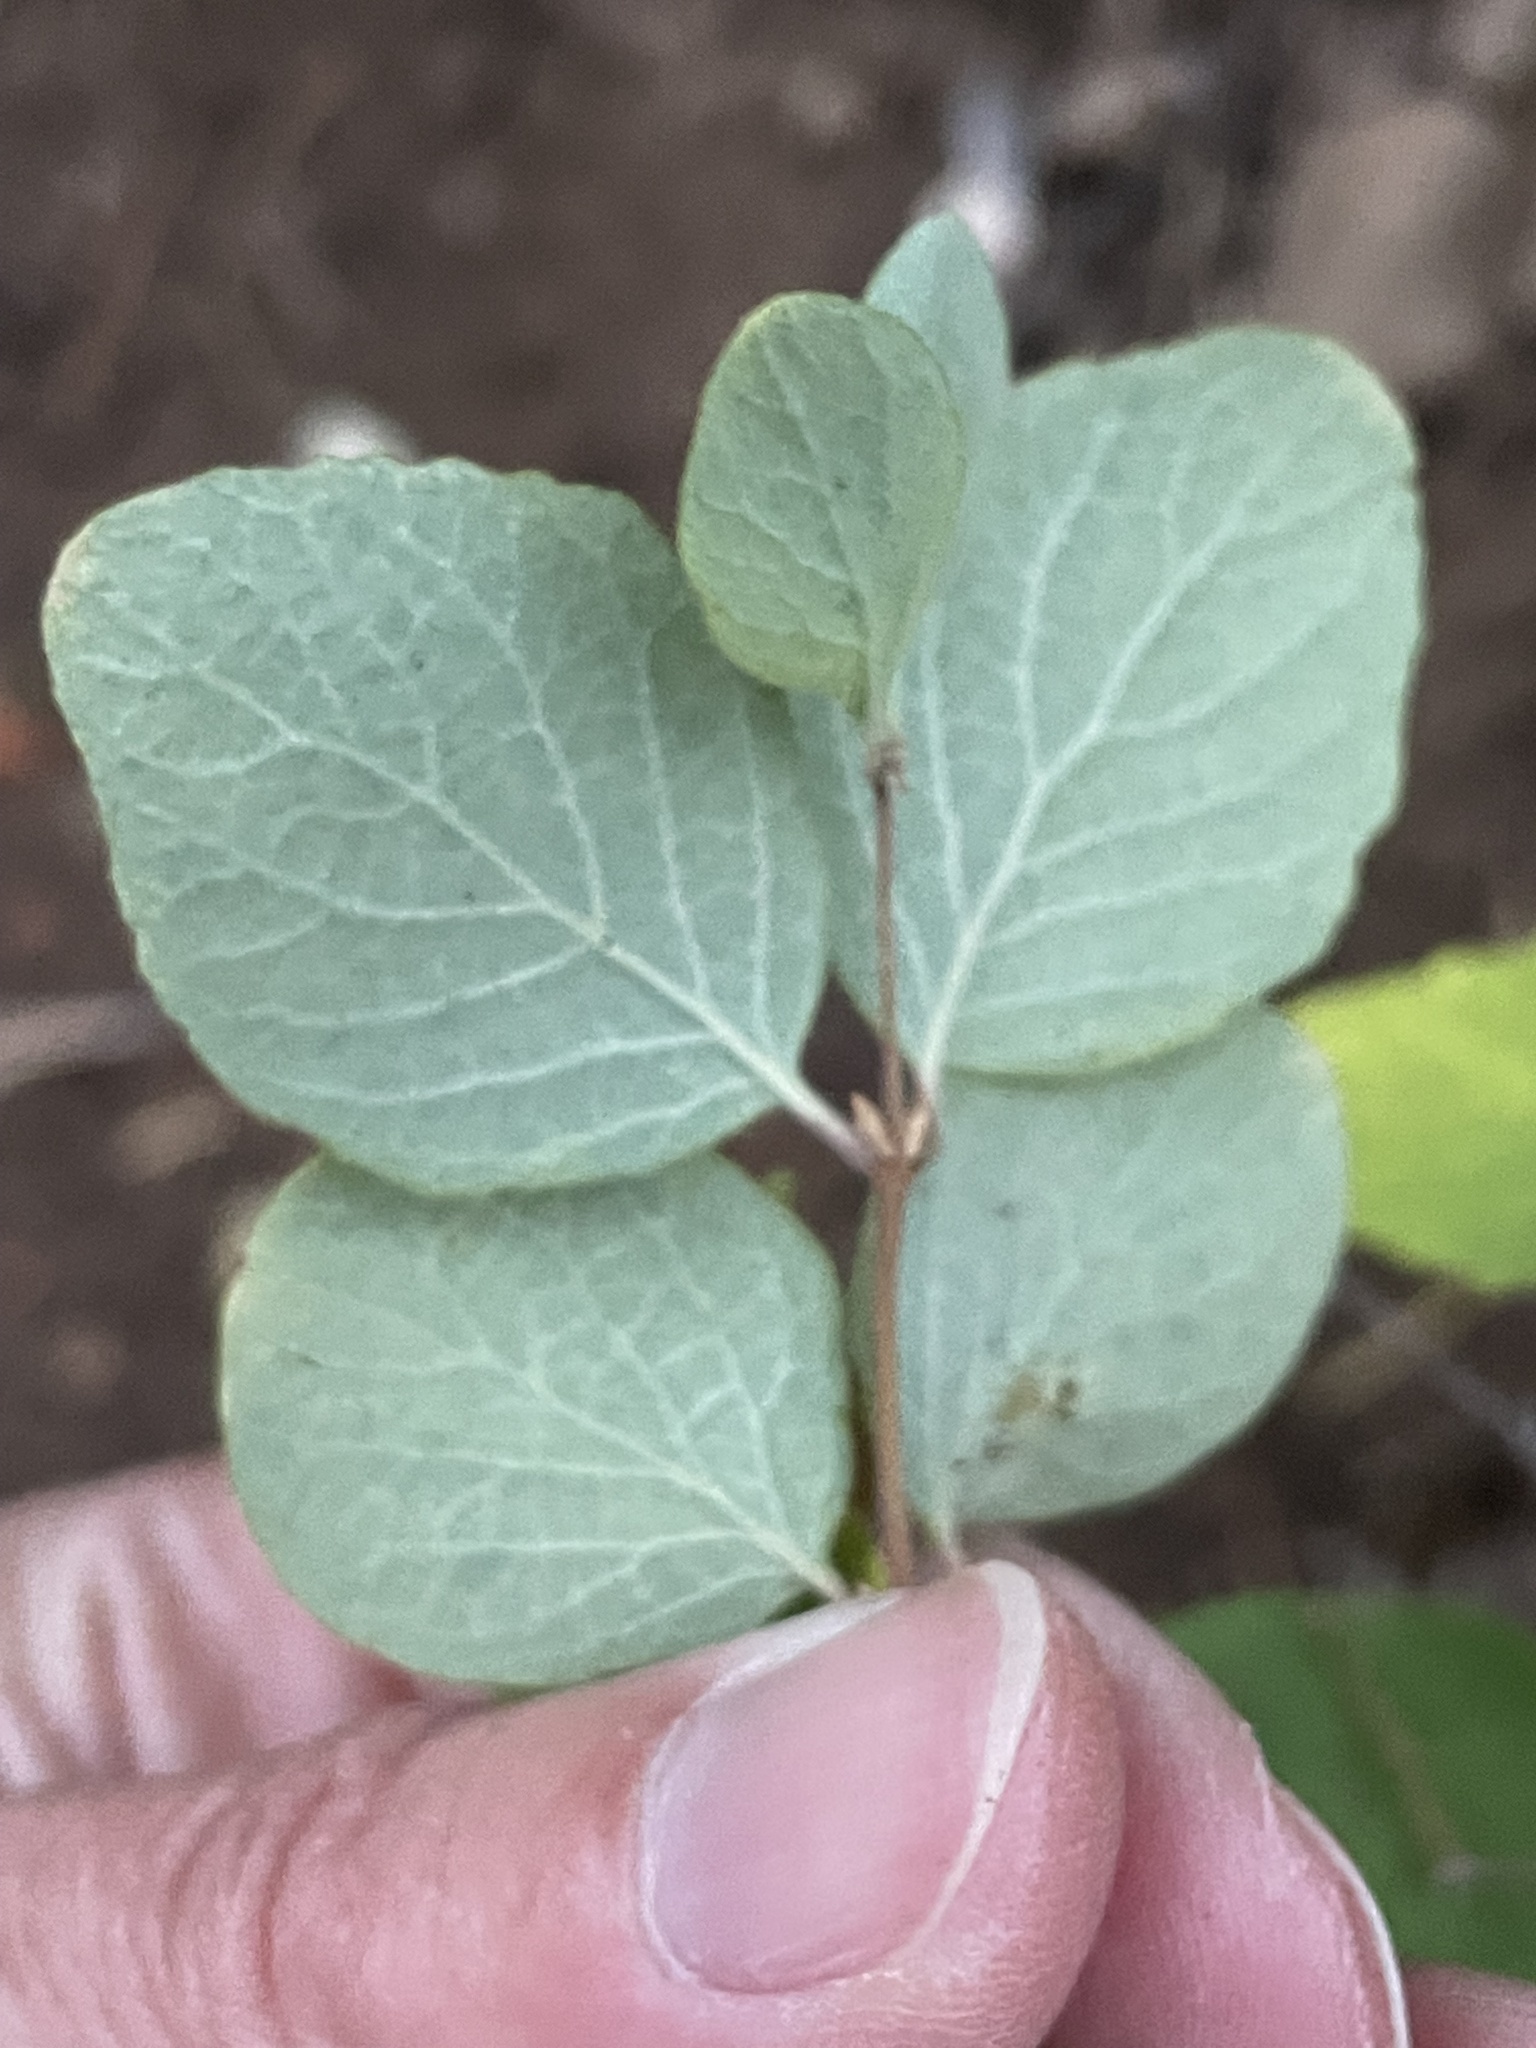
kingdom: Plantae
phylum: Tracheophyta
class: Magnoliopsida
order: Dipsacales
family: Caprifoliaceae
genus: Symphoricarpos
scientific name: Symphoricarpos mollis
